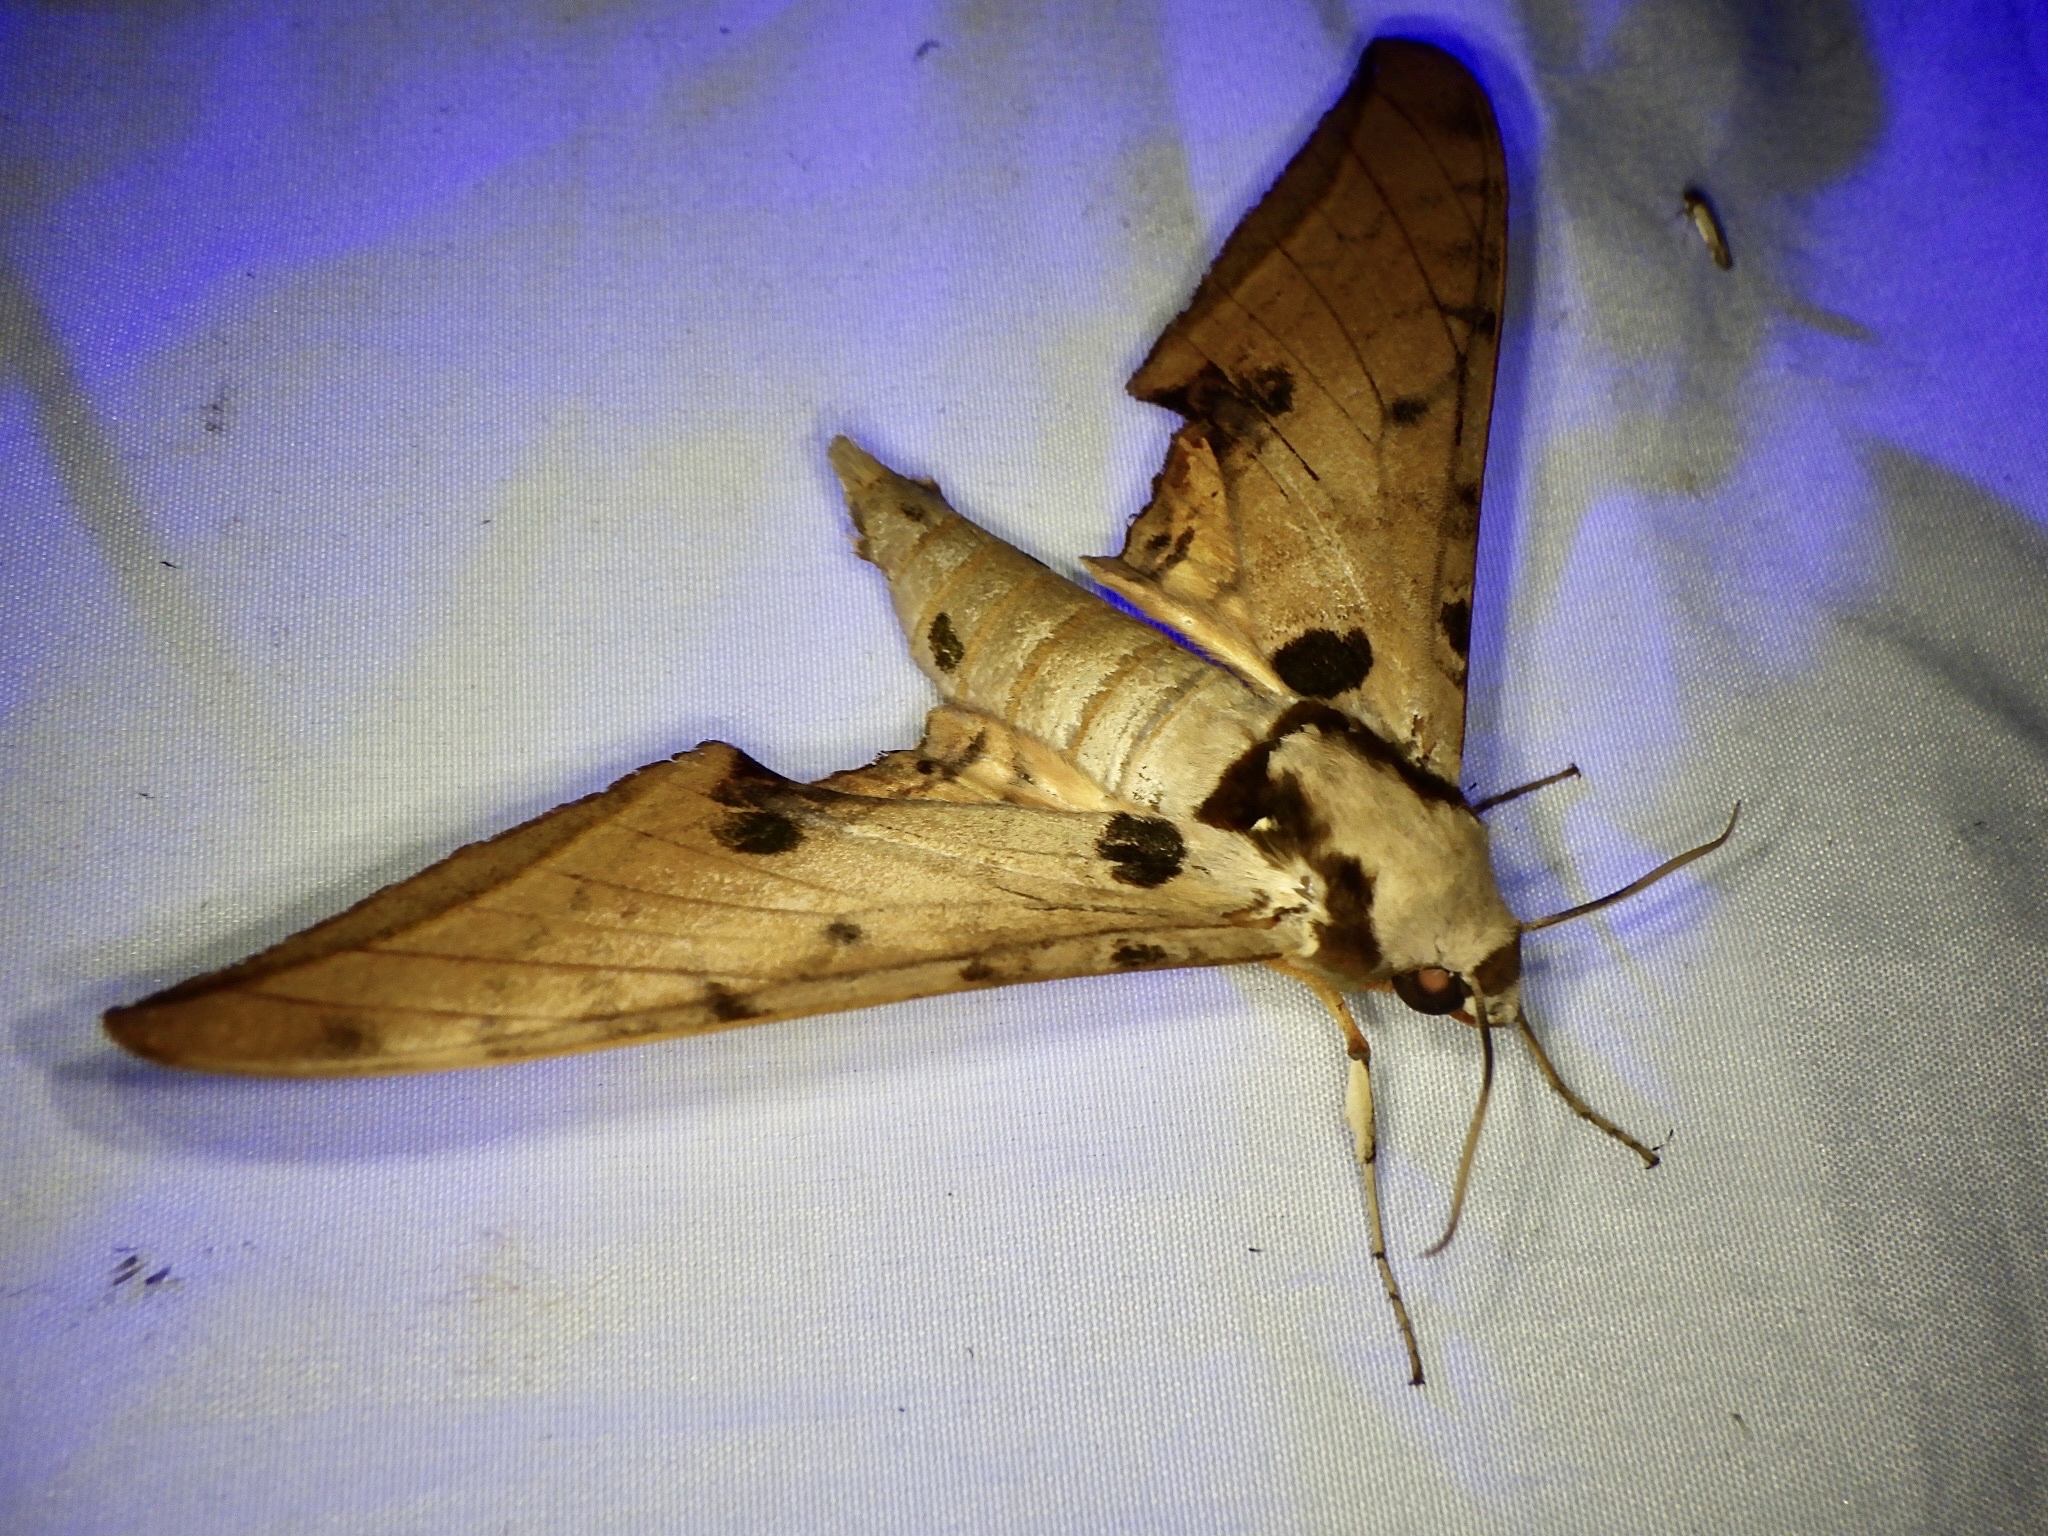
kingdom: Animalia
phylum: Arthropoda
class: Insecta
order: Lepidoptera
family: Sphingidae
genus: Ambulyx
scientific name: Ambulyx ochracea
